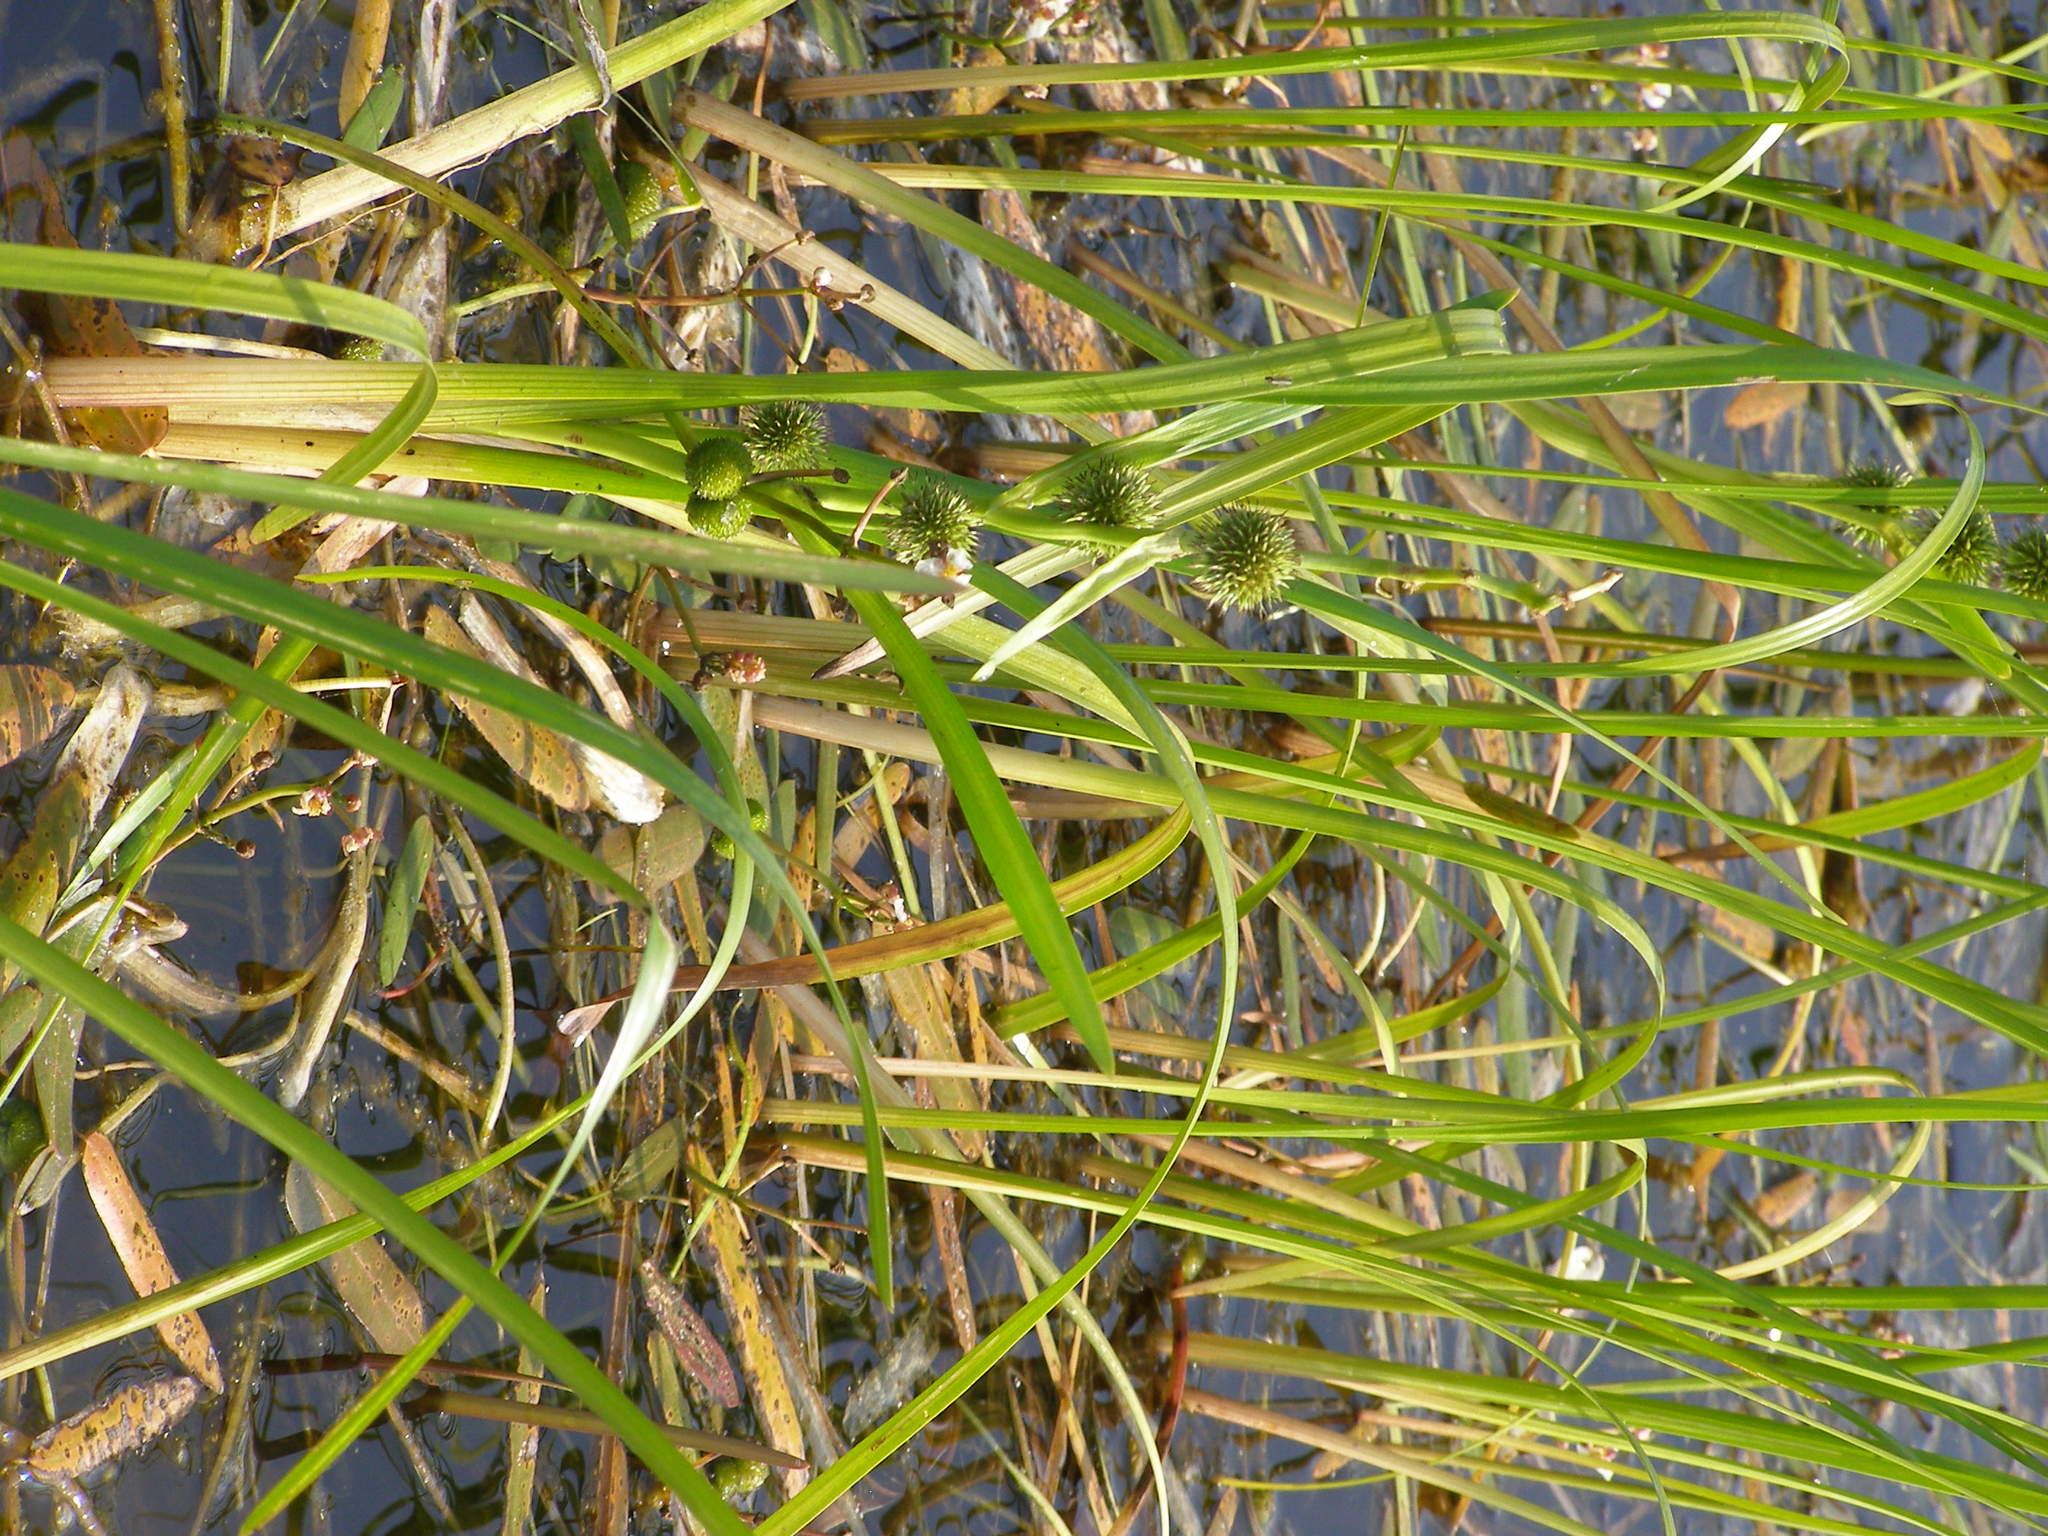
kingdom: Plantae
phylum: Tracheophyta
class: Liliopsida
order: Poales
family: Typhaceae
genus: Sparganium
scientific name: Sparganium emersum
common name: Unbranched bur-reed
